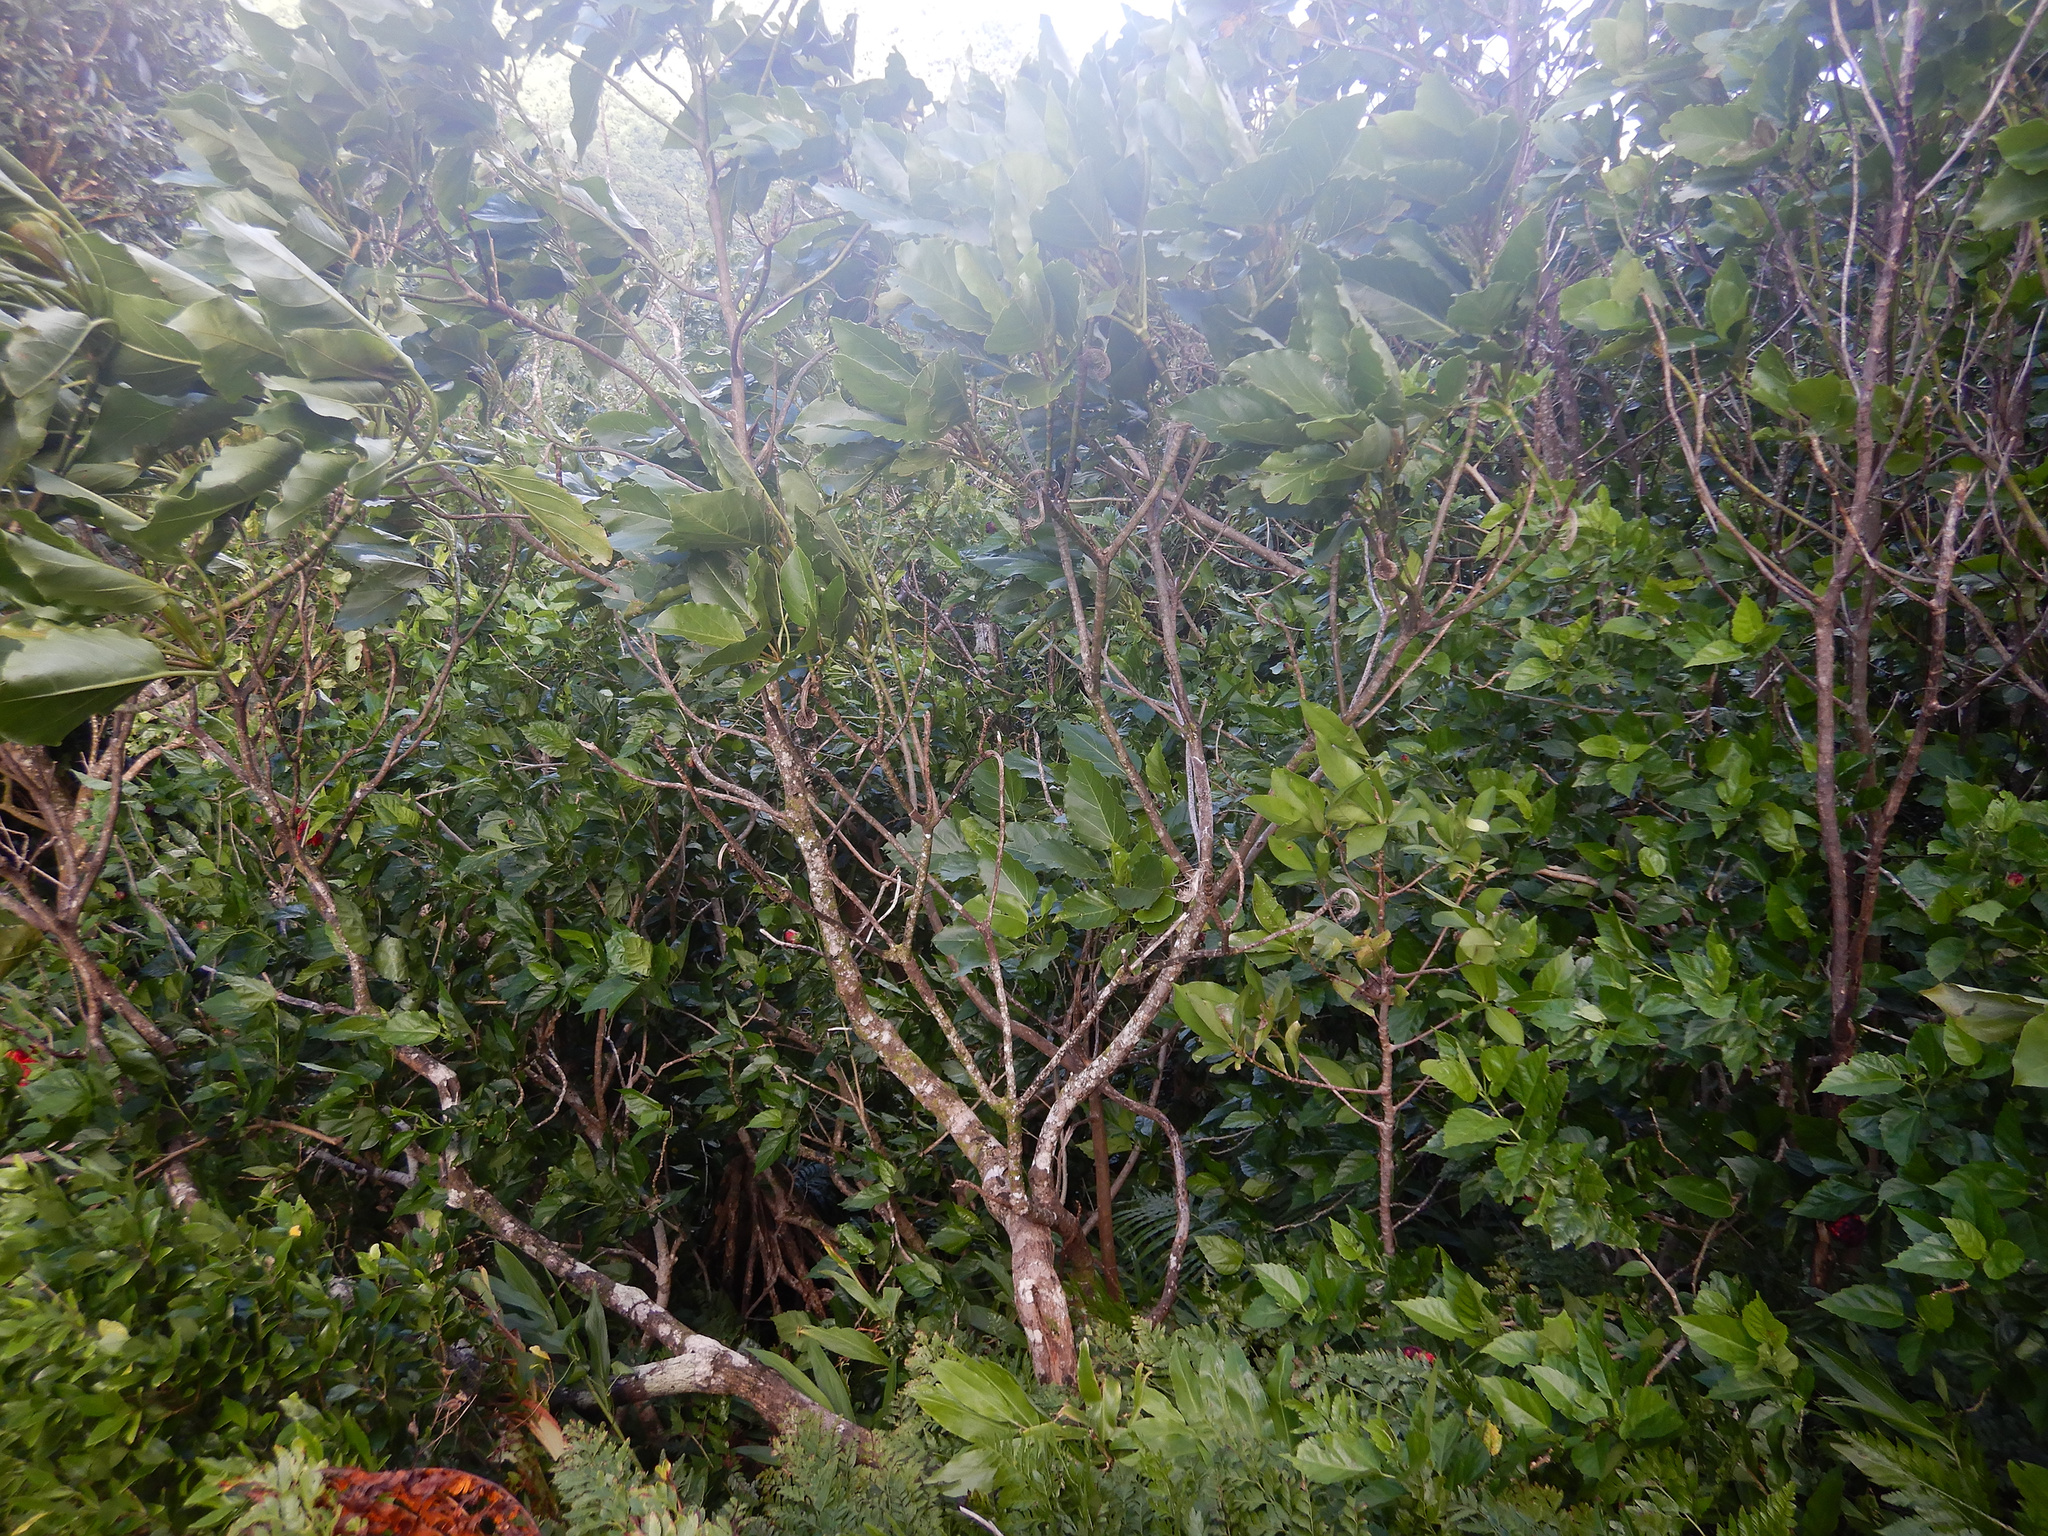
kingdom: Plantae
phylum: Tracheophyta
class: Magnoliopsida
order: Asterales
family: Asteraceae
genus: Fitchia
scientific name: Fitchia speciosa
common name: Burr daisytree
